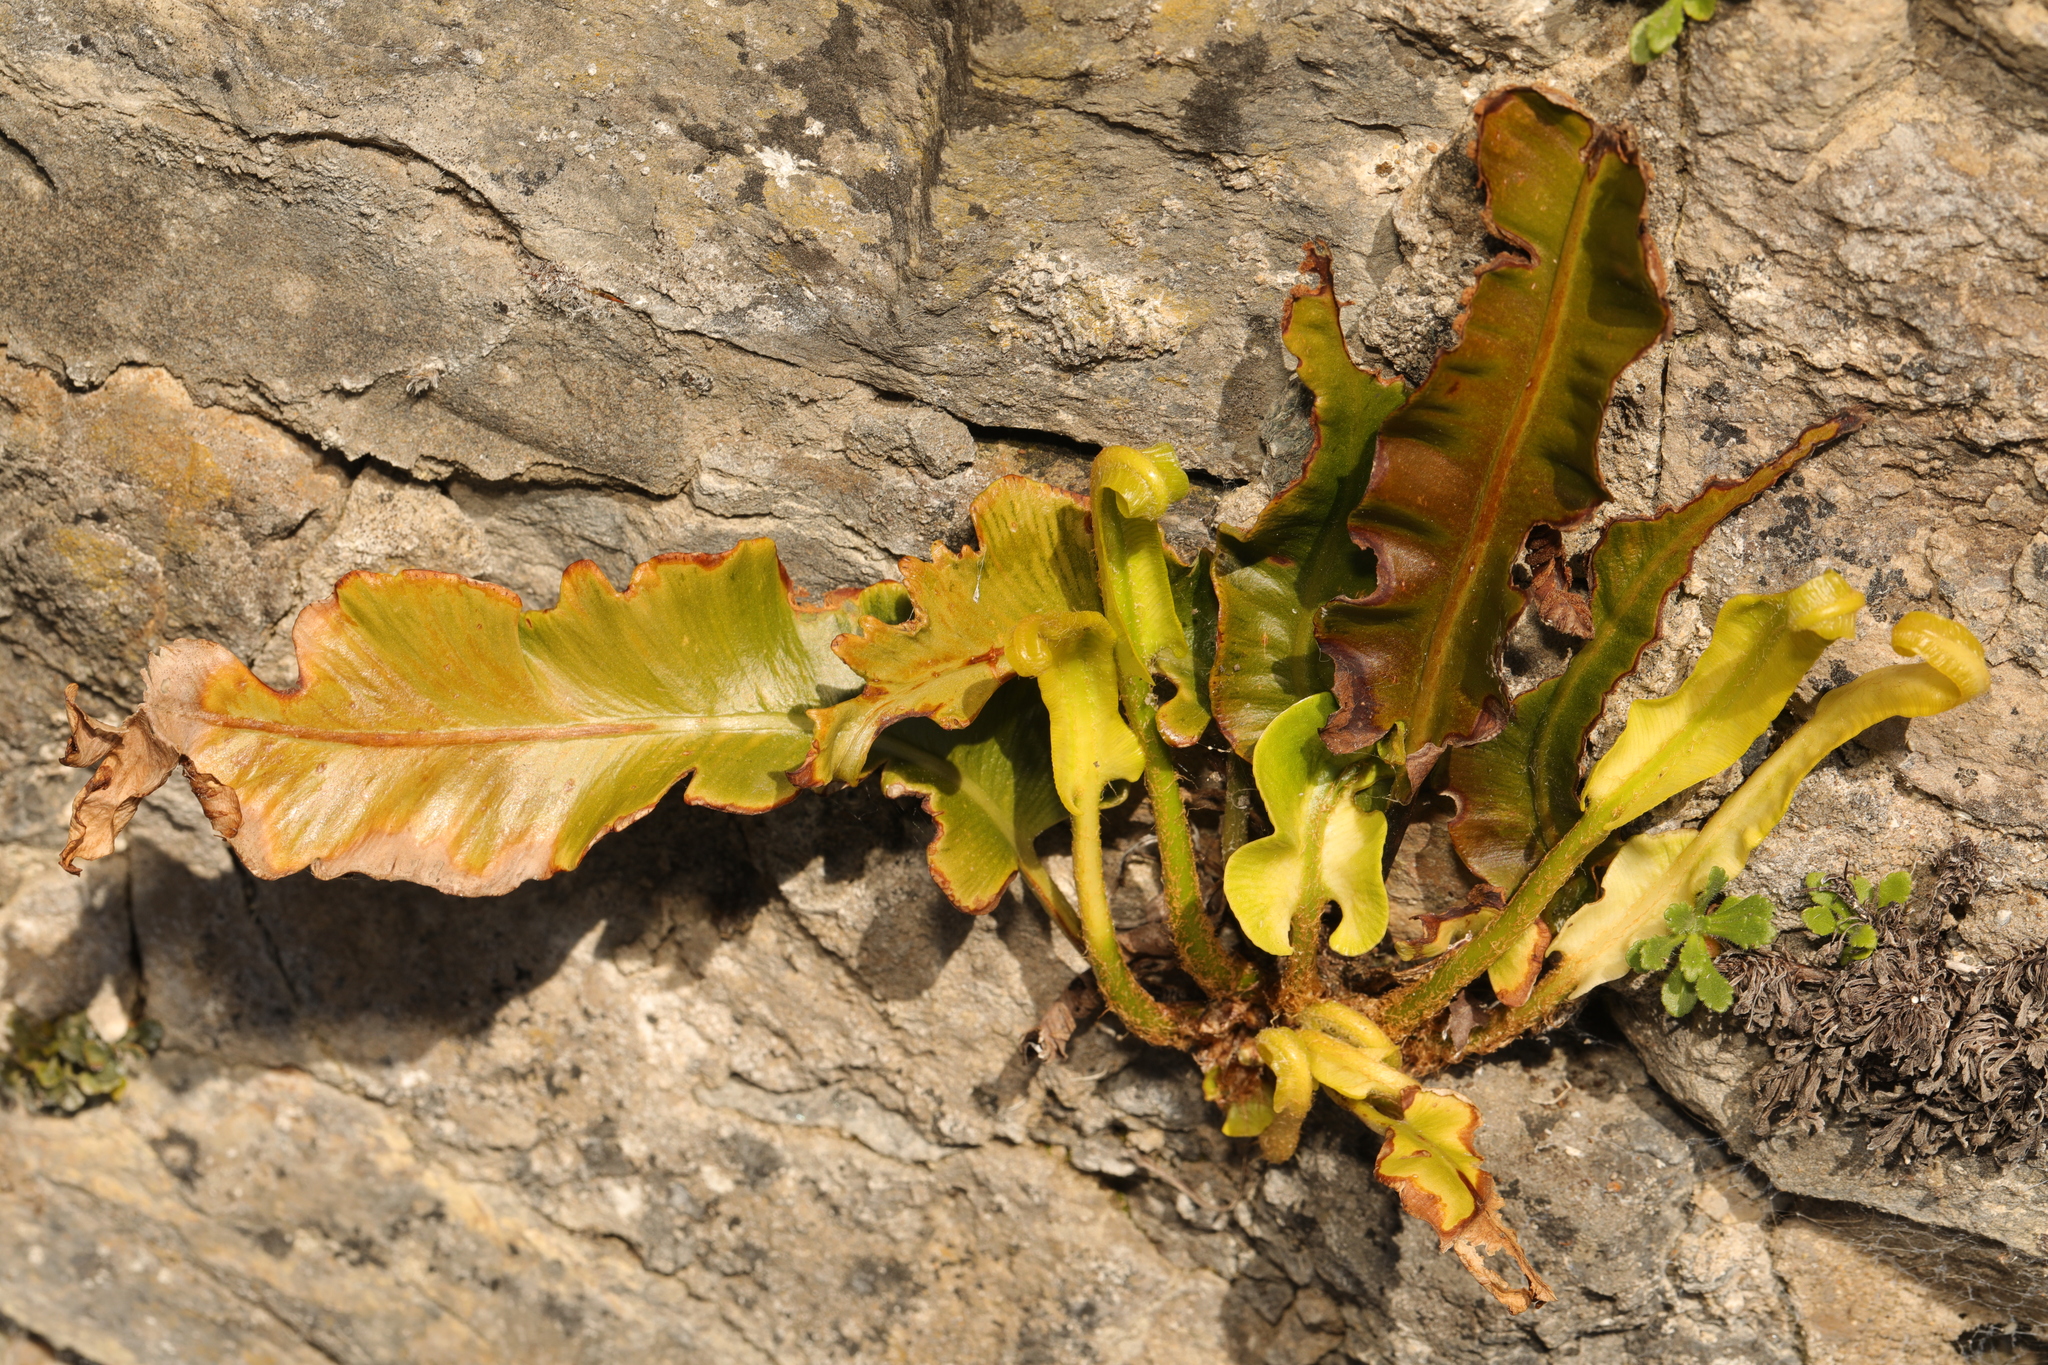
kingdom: Plantae
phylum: Tracheophyta
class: Polypodiopsida
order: Polypodiales
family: Aspleniaceae
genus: Asplenium
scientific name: Asplenium scolopendrium
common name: Hart's-tongue fern
